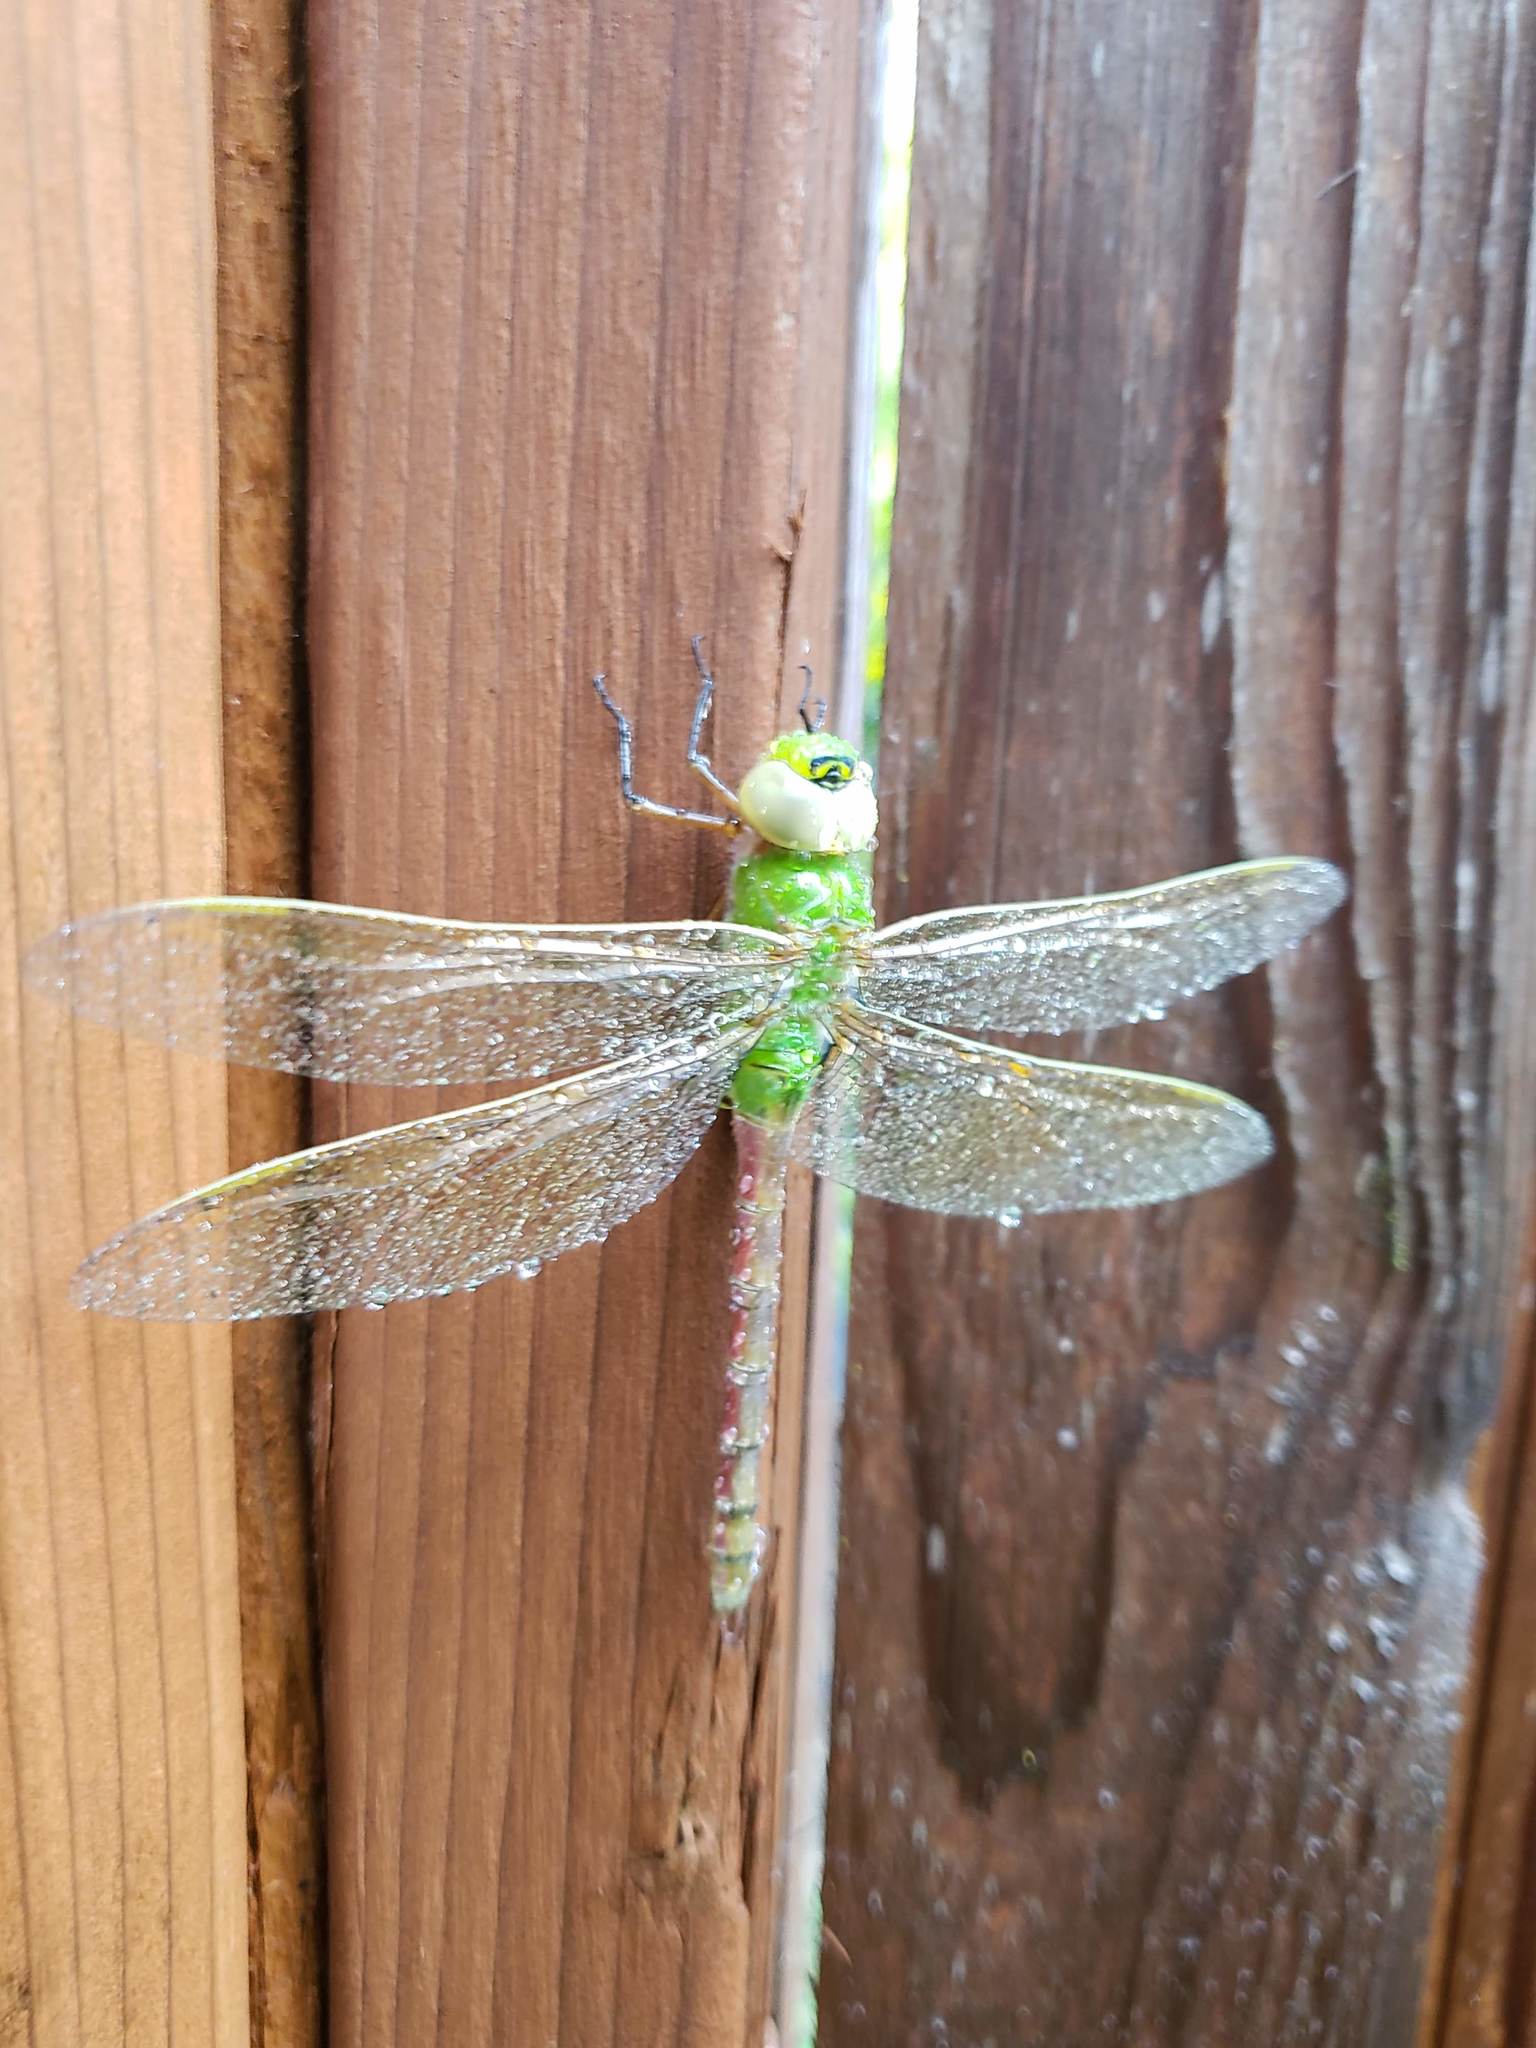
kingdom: Animalia
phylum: Arthropoda
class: Insecta
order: Odonata
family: Aeshnidae
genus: Anax
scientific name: Anax junius
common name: Common green darner
